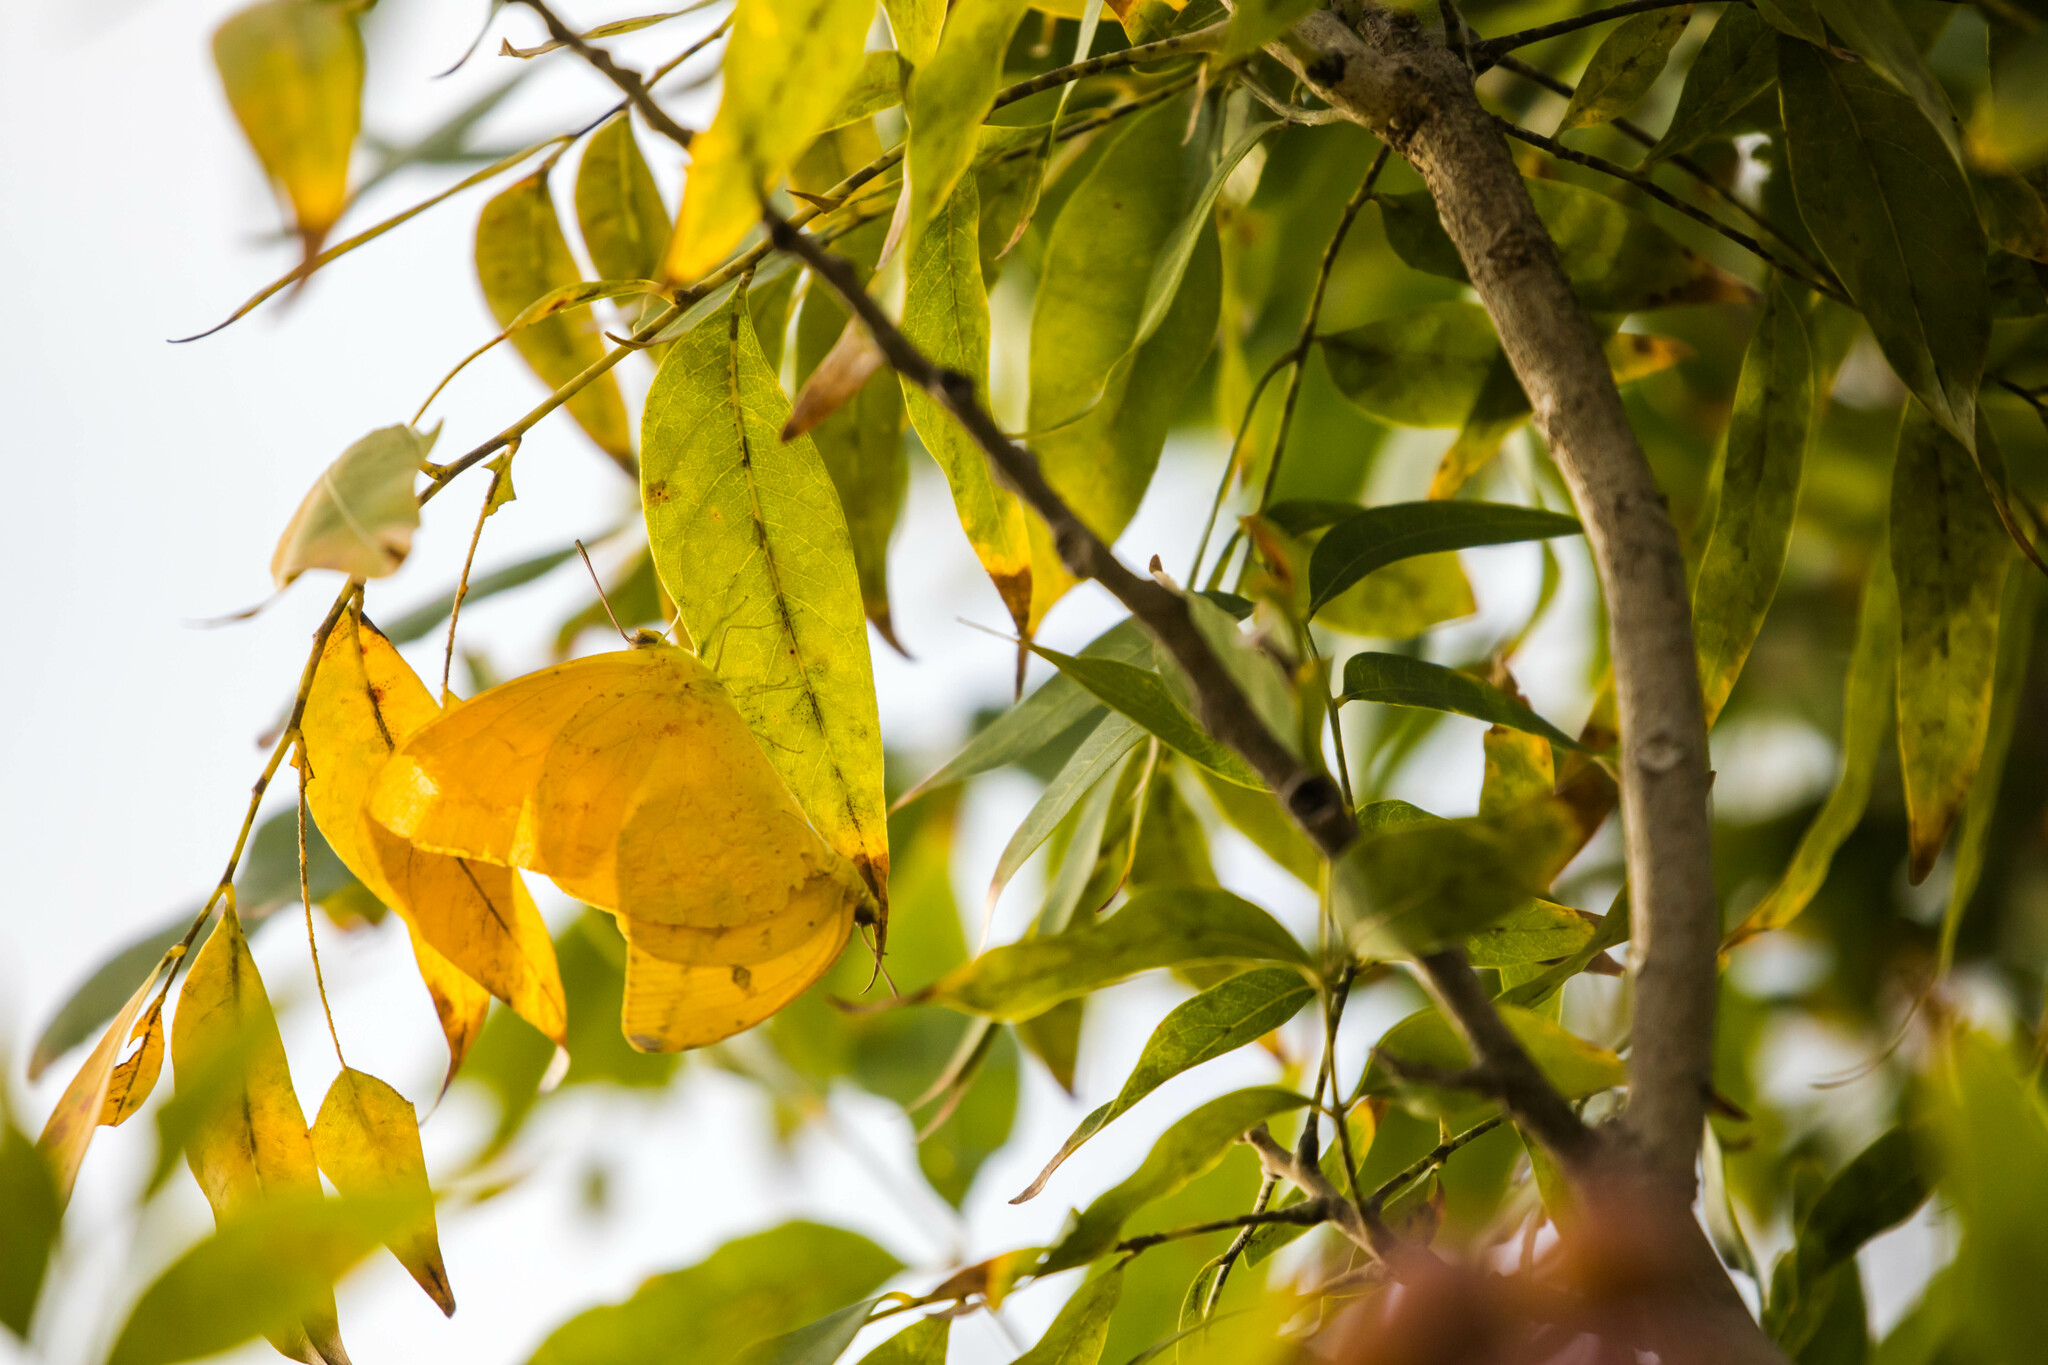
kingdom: Animalia
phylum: Arthropoda
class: Insecta
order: Lepidoptera
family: Pieridae
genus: Phoebis
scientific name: Phoebis agarithe
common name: Large orange sulphur
